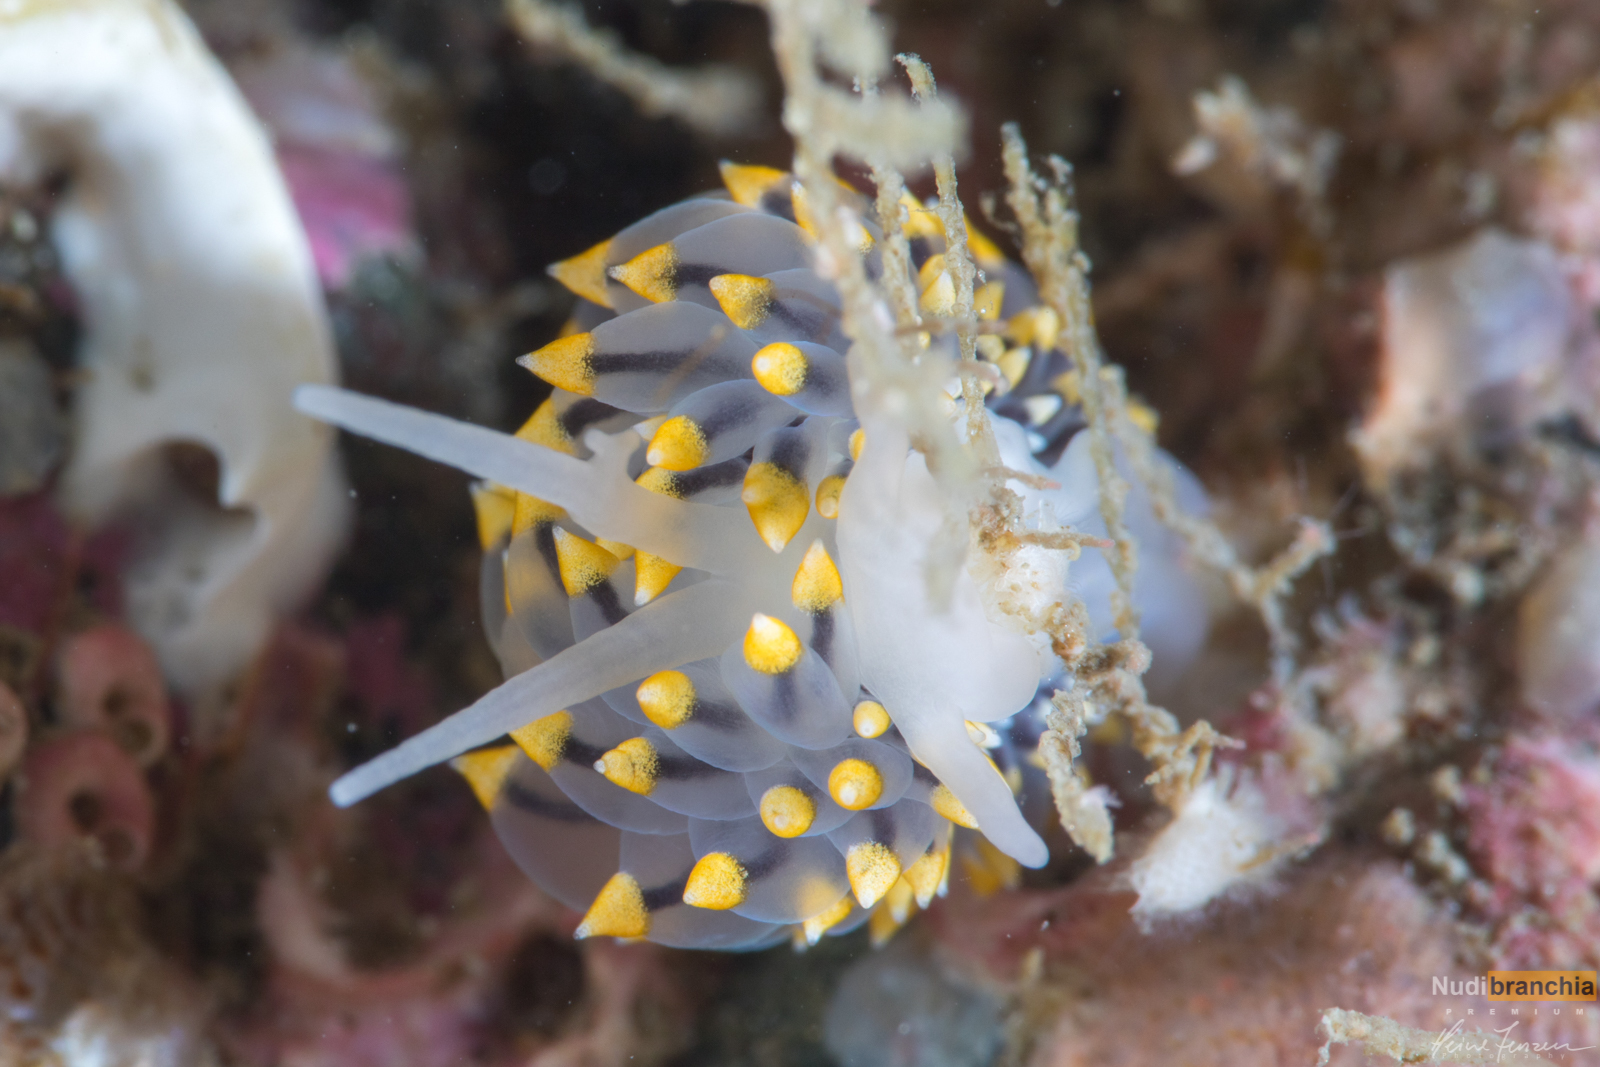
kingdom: Animalia
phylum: Mollusca
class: Gastropoda
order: Nudibranchia
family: Eubranchidae
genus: Eubranchus
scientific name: Eubranchus tricolor
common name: Painted balloon aeolis
